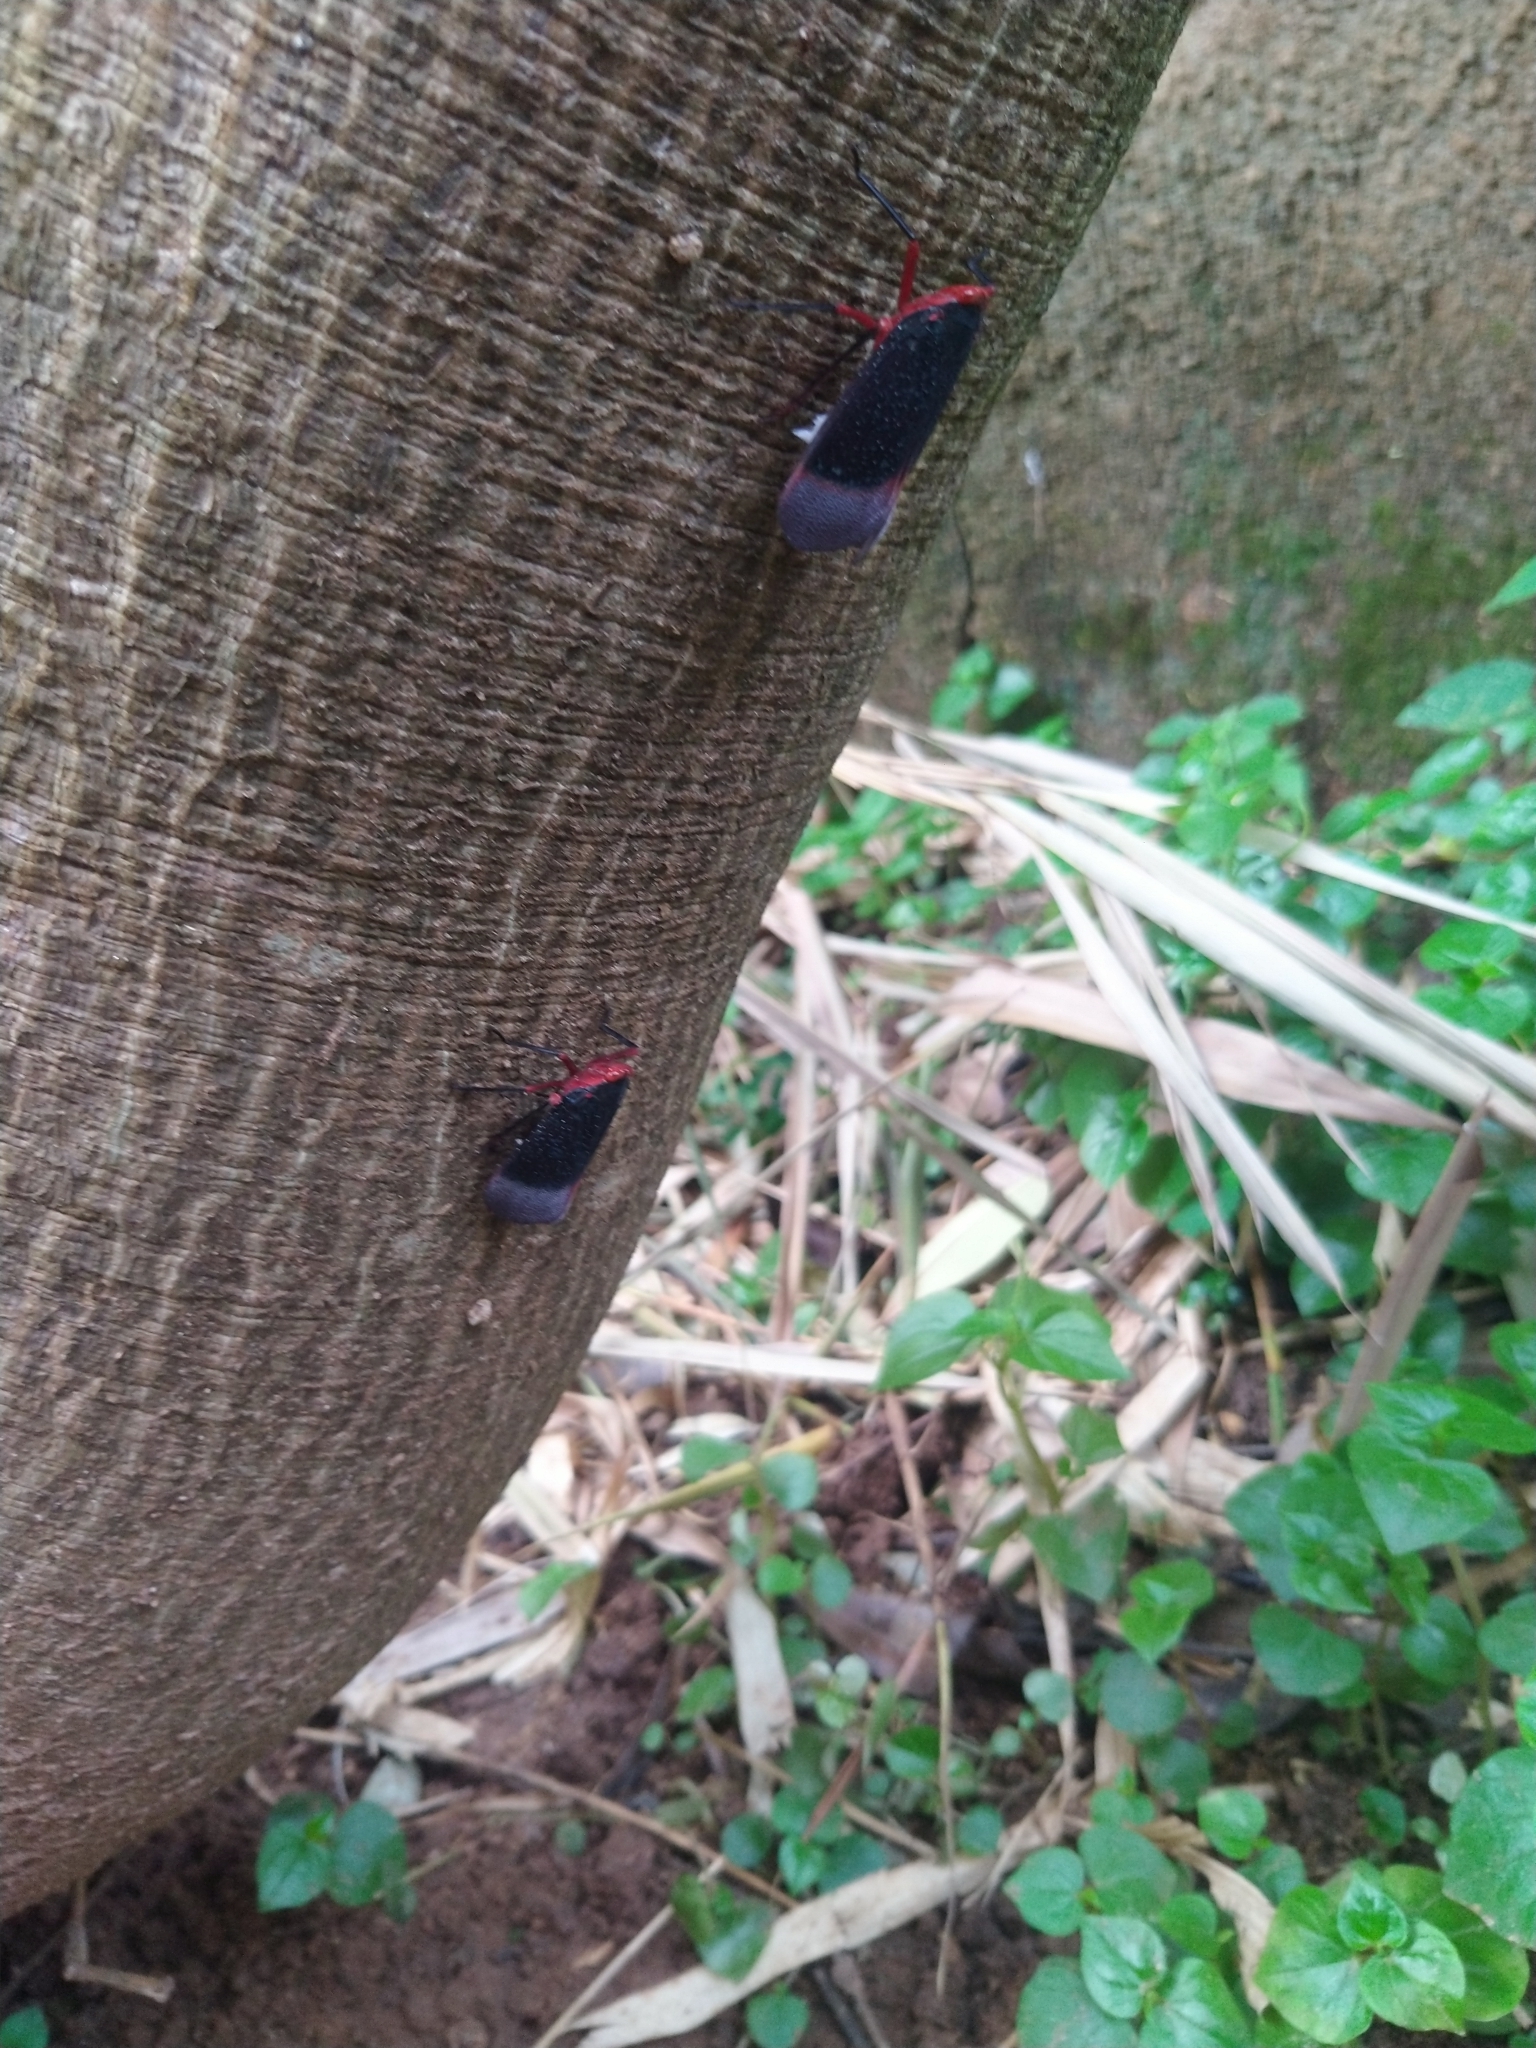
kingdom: Animalia
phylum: Arthropoda
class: Insecta
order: Hemiptera
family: Fulgoridae
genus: Kalidasa
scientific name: Kalidasa lanata
